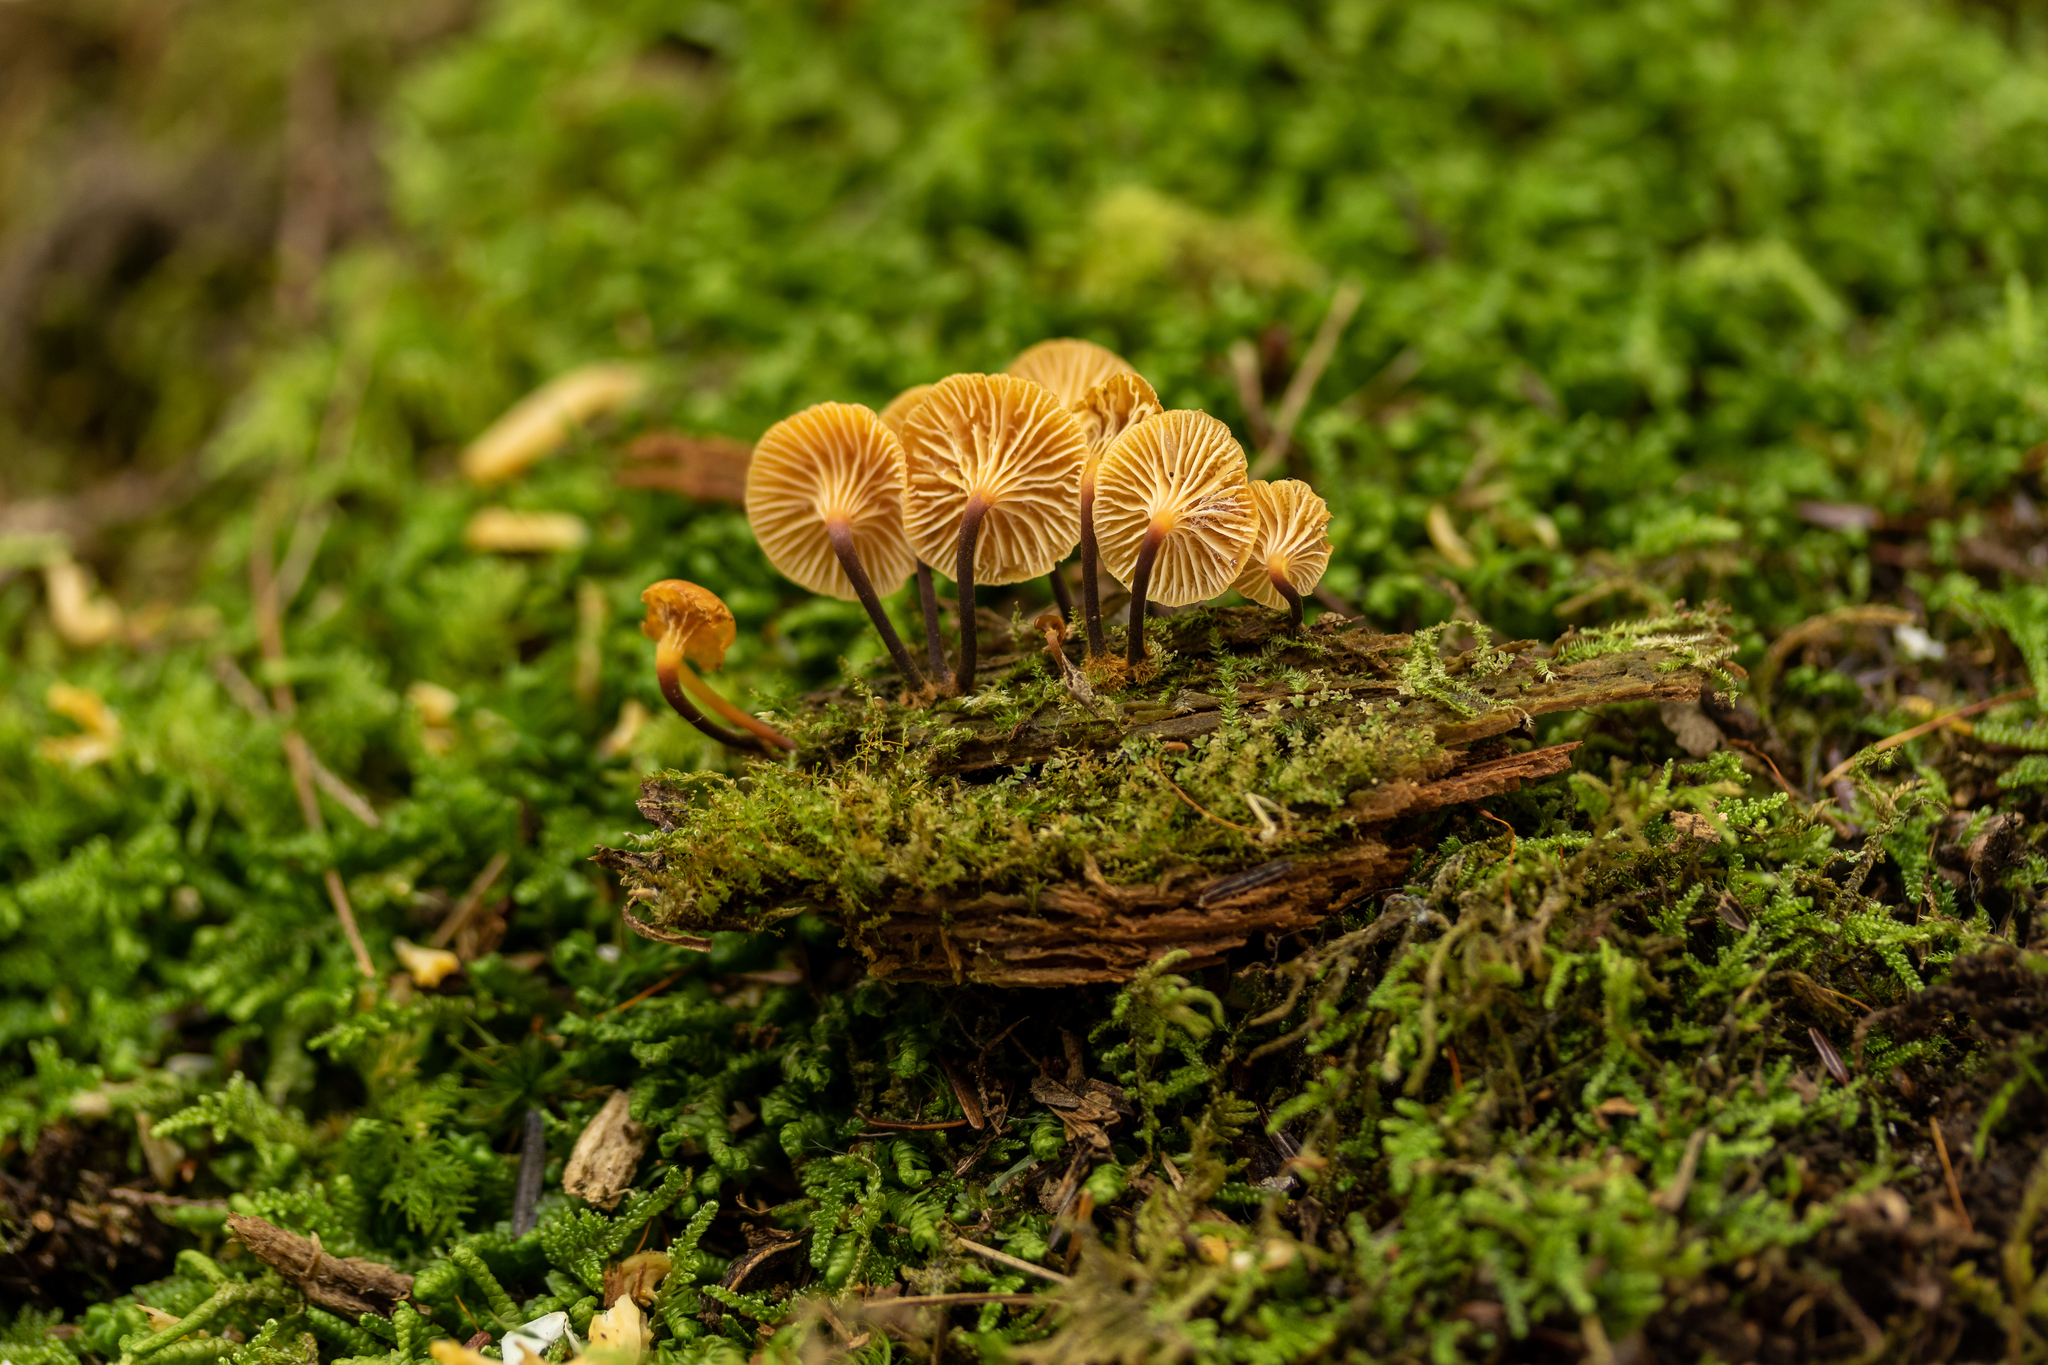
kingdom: Fungi
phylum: Basidiomycota
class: Agaricomycetes
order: Agaricales
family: Mycenaceae
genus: Xeromphalina
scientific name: Xeromphalina enigmatica
